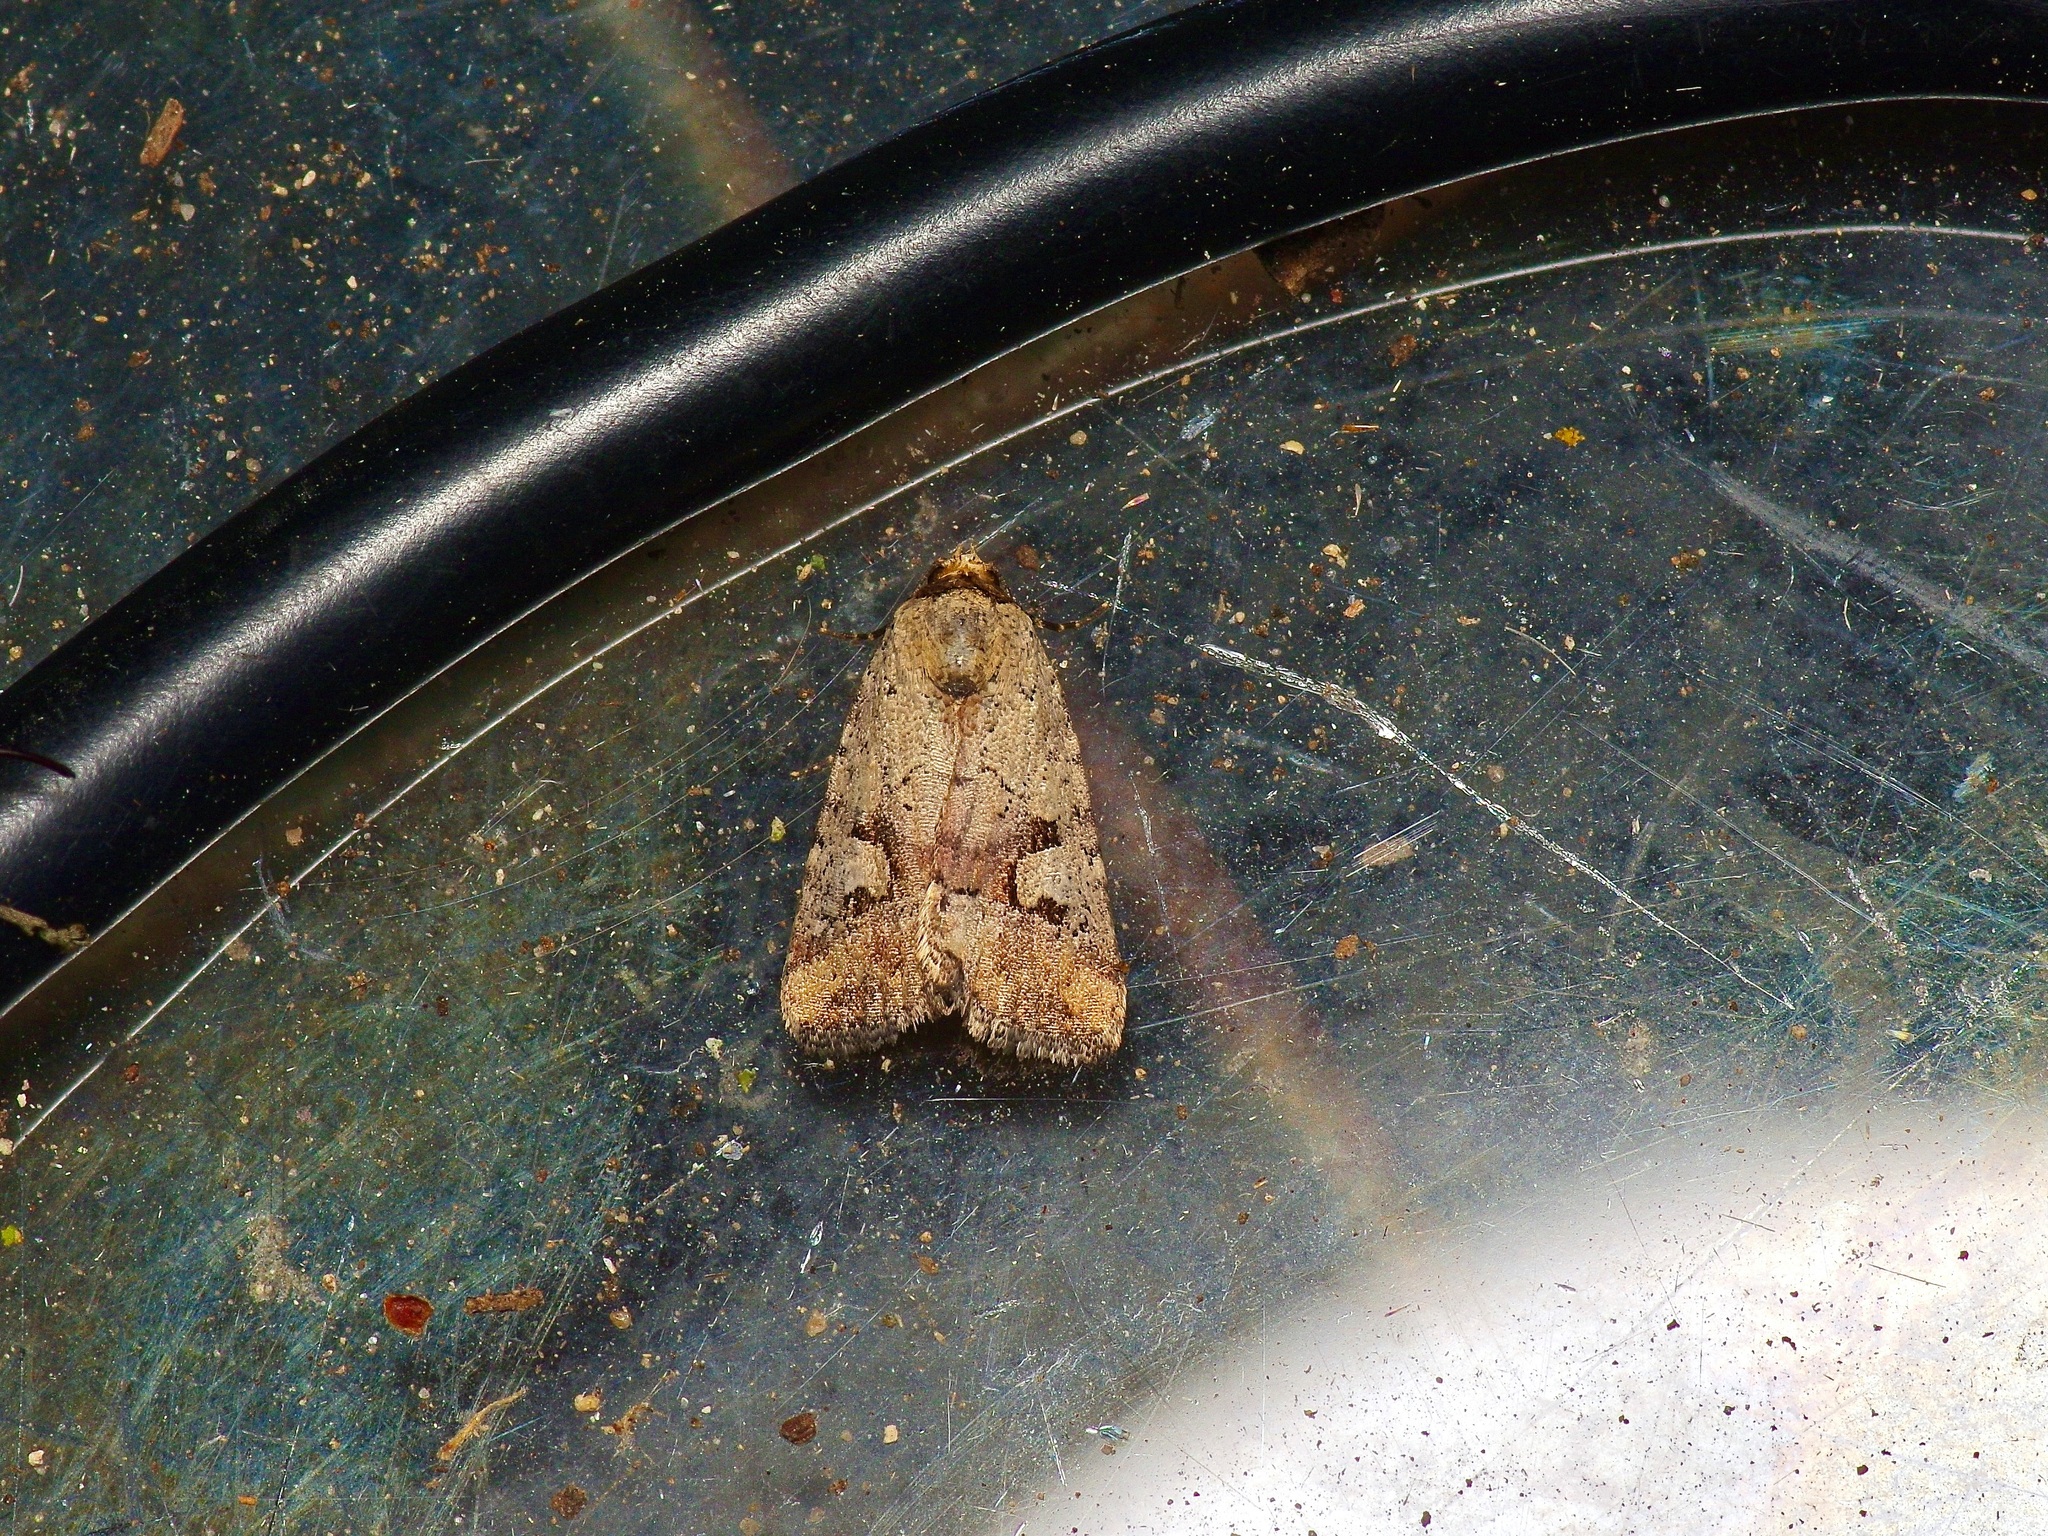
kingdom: Animalia
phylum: Arthropoda
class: Insecta
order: Lepidoptera
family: Noctuidae
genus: Elaphria
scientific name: Elaphria festivoides
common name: Festive midget
